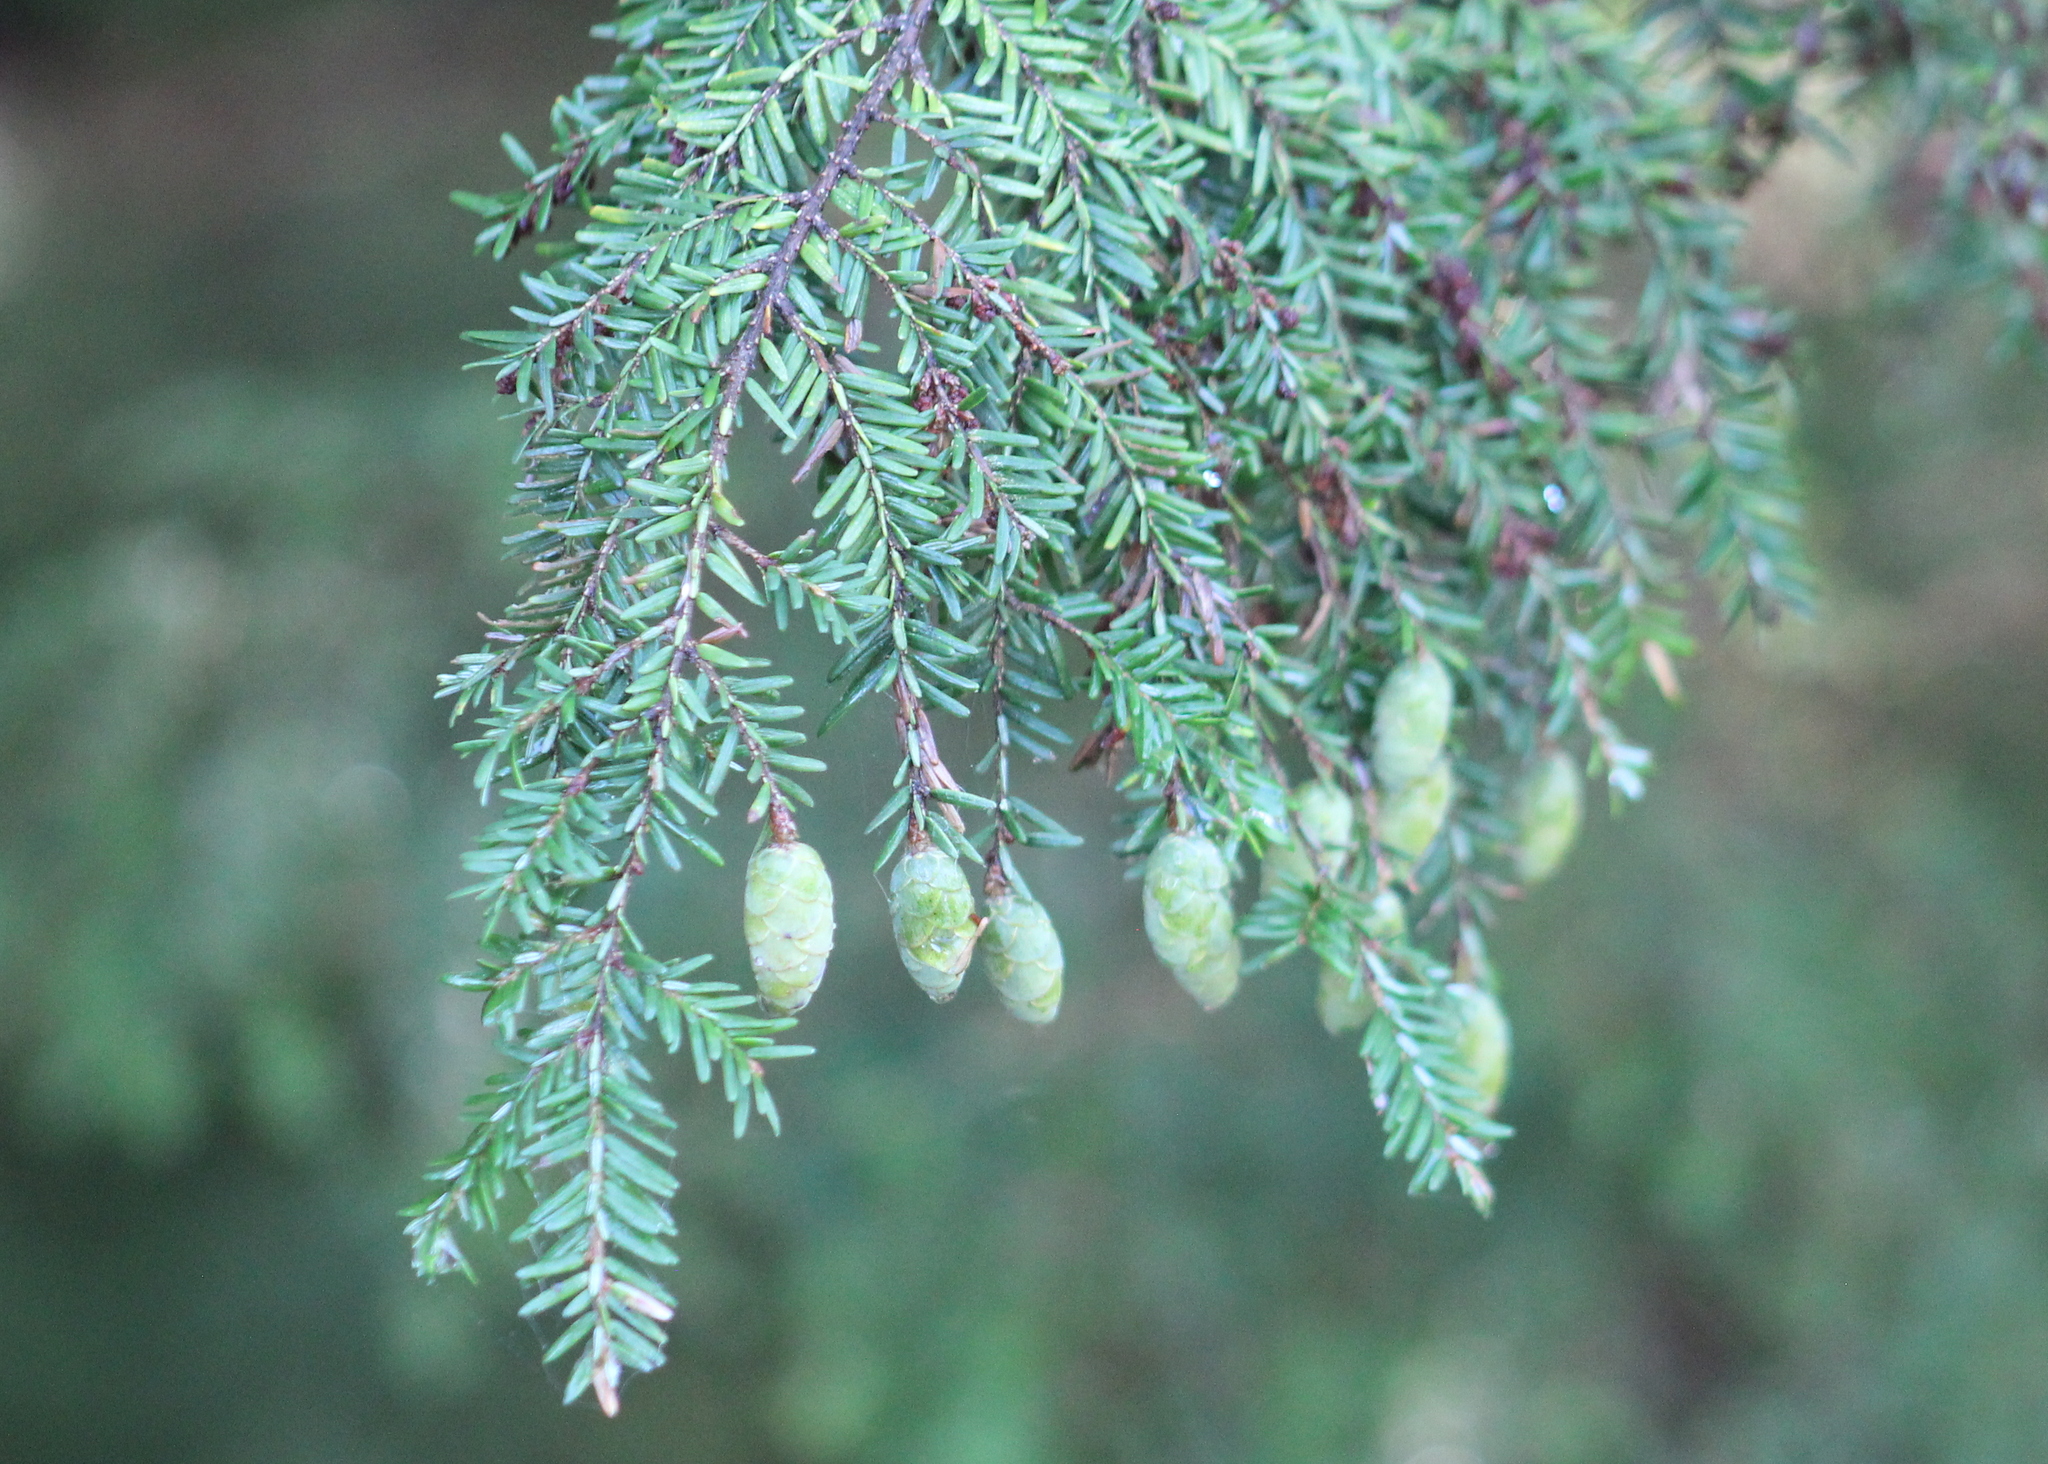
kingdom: Plantae
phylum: Tracheophyta
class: Pinopsida
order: Pinales
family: Pinaceae
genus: Tsuga
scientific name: Tsuga canadensis
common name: Eastern hemlock
